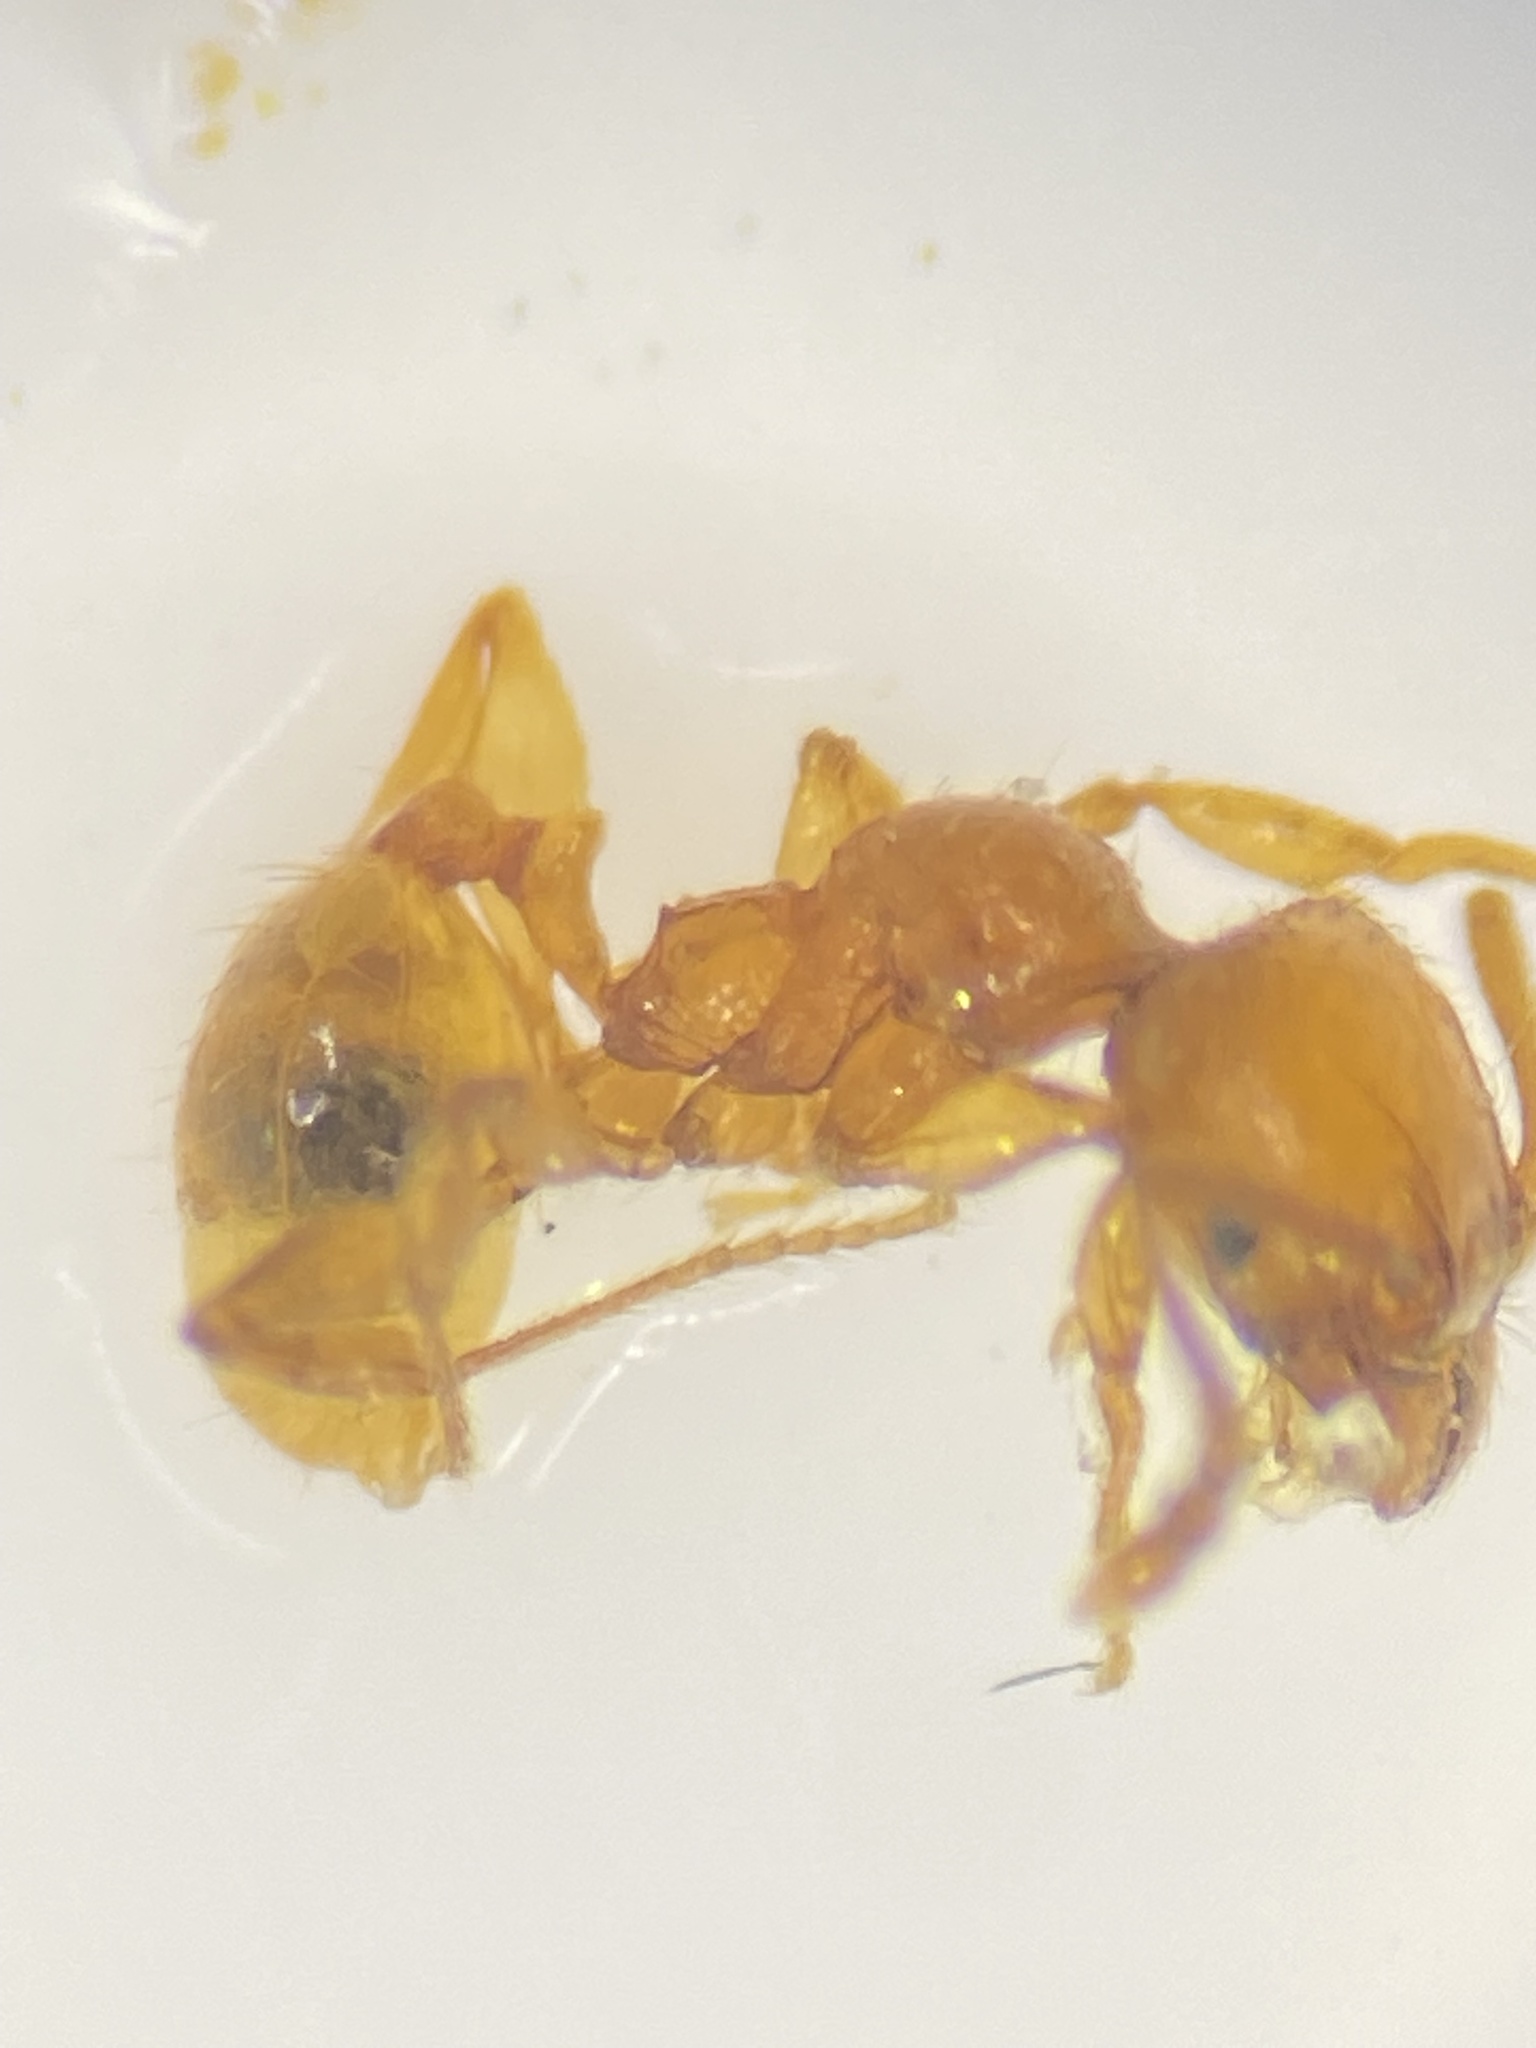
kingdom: Animalia
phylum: Arthropoda
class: Insecta
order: Hymenoptera
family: Formicidae
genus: Pheidole
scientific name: Pheidole pelor
